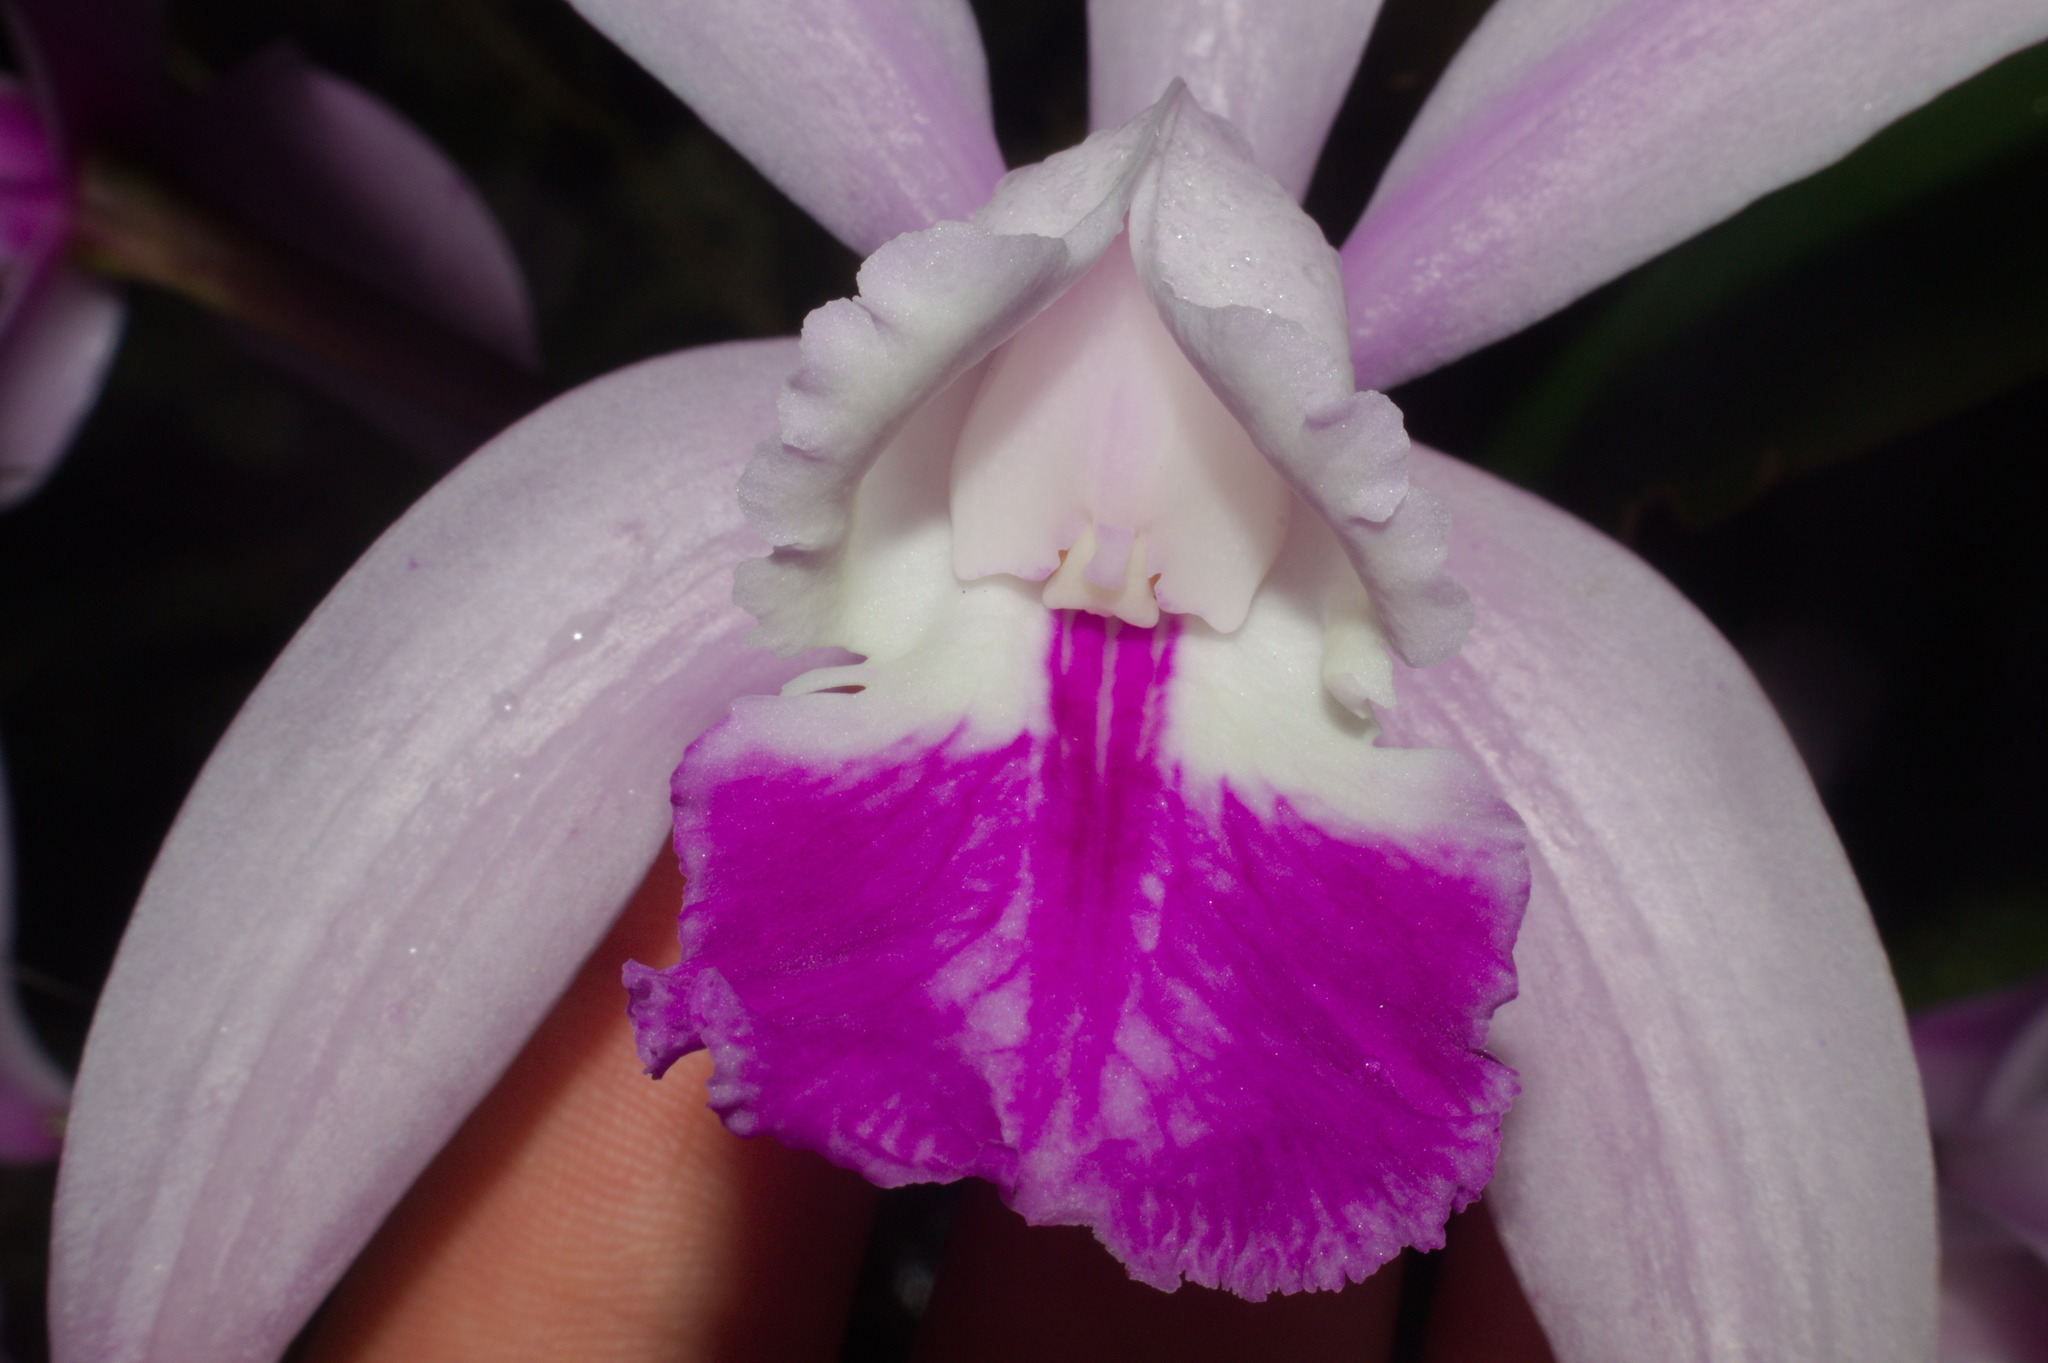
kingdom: Plantae
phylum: Tracheophyta
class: Liliopsida
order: Asparagales
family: Orchidaceae
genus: Cattleya
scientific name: Cattleya intermedia
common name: Intermediate cattleya
